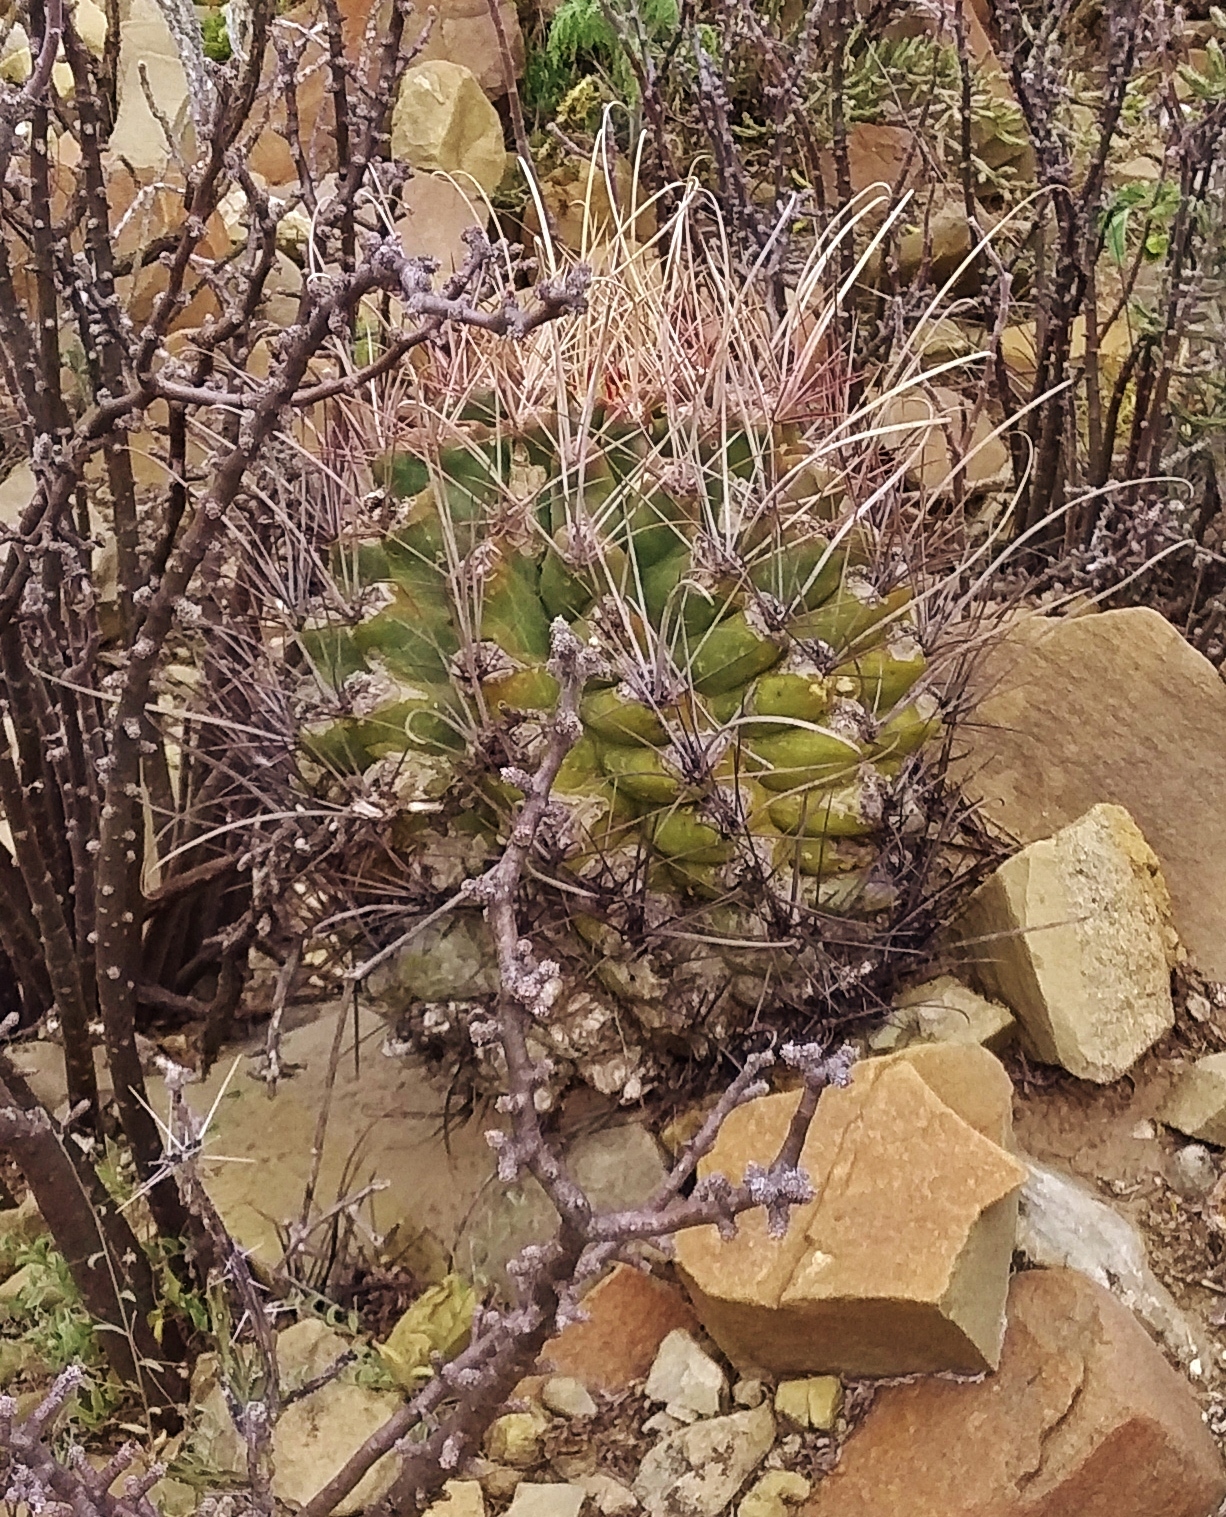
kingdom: Plantae
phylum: Tracheophyta
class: Magnoliopsida
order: Caryophyllales
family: Cactaceae
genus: Bisnaga
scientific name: Bisnaga hamatacantha
